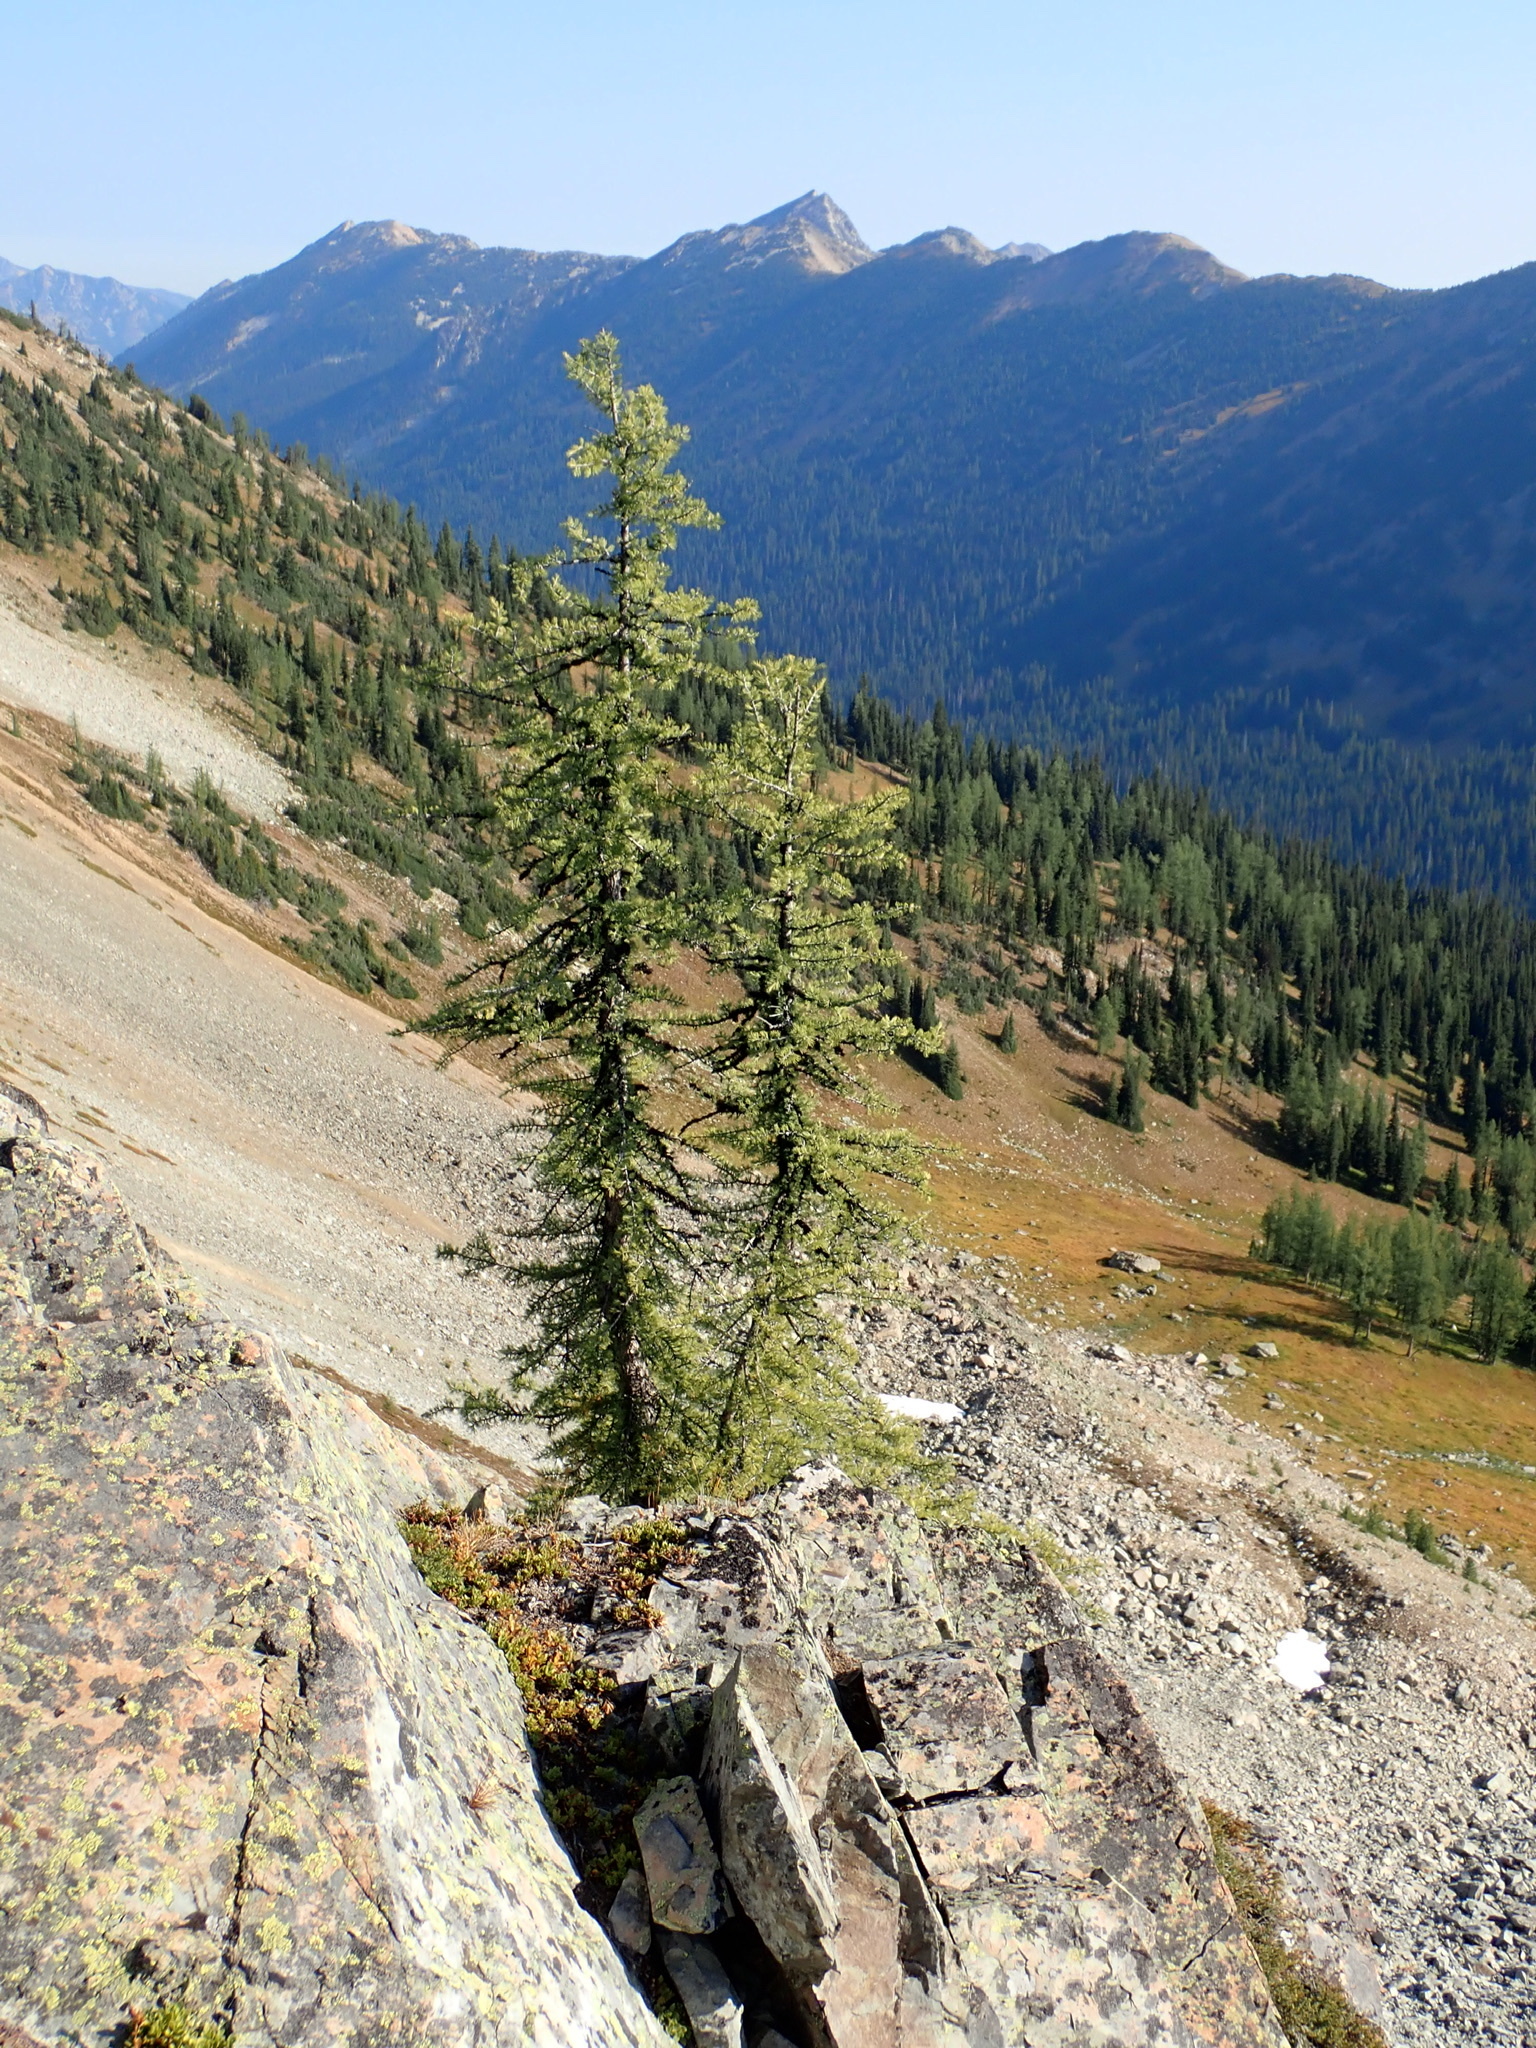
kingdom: Plantae
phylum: Tracheophyta
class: Pinopsida
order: Pinales
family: Pinaceae
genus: Larix
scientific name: Larix lyallii
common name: Alpine larch
